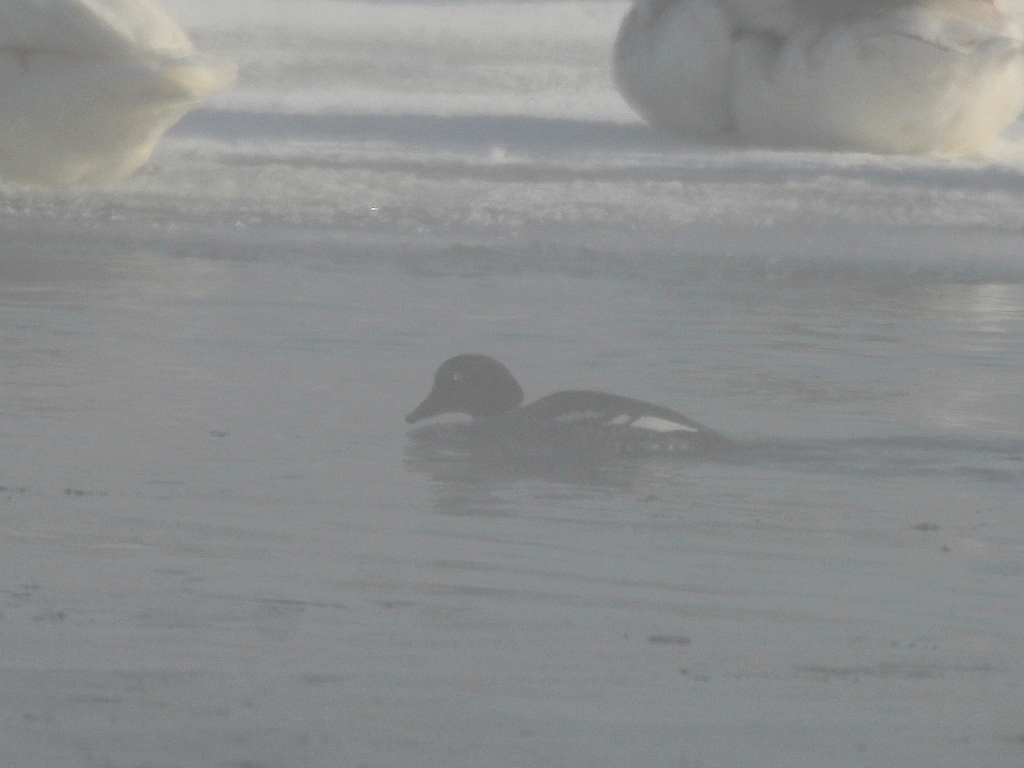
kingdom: Animalia
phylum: Chordata
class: Aves
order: Anseriformes
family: Anatidae
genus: Bucephala
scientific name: Bucephala clangula
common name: Common goldeneye
